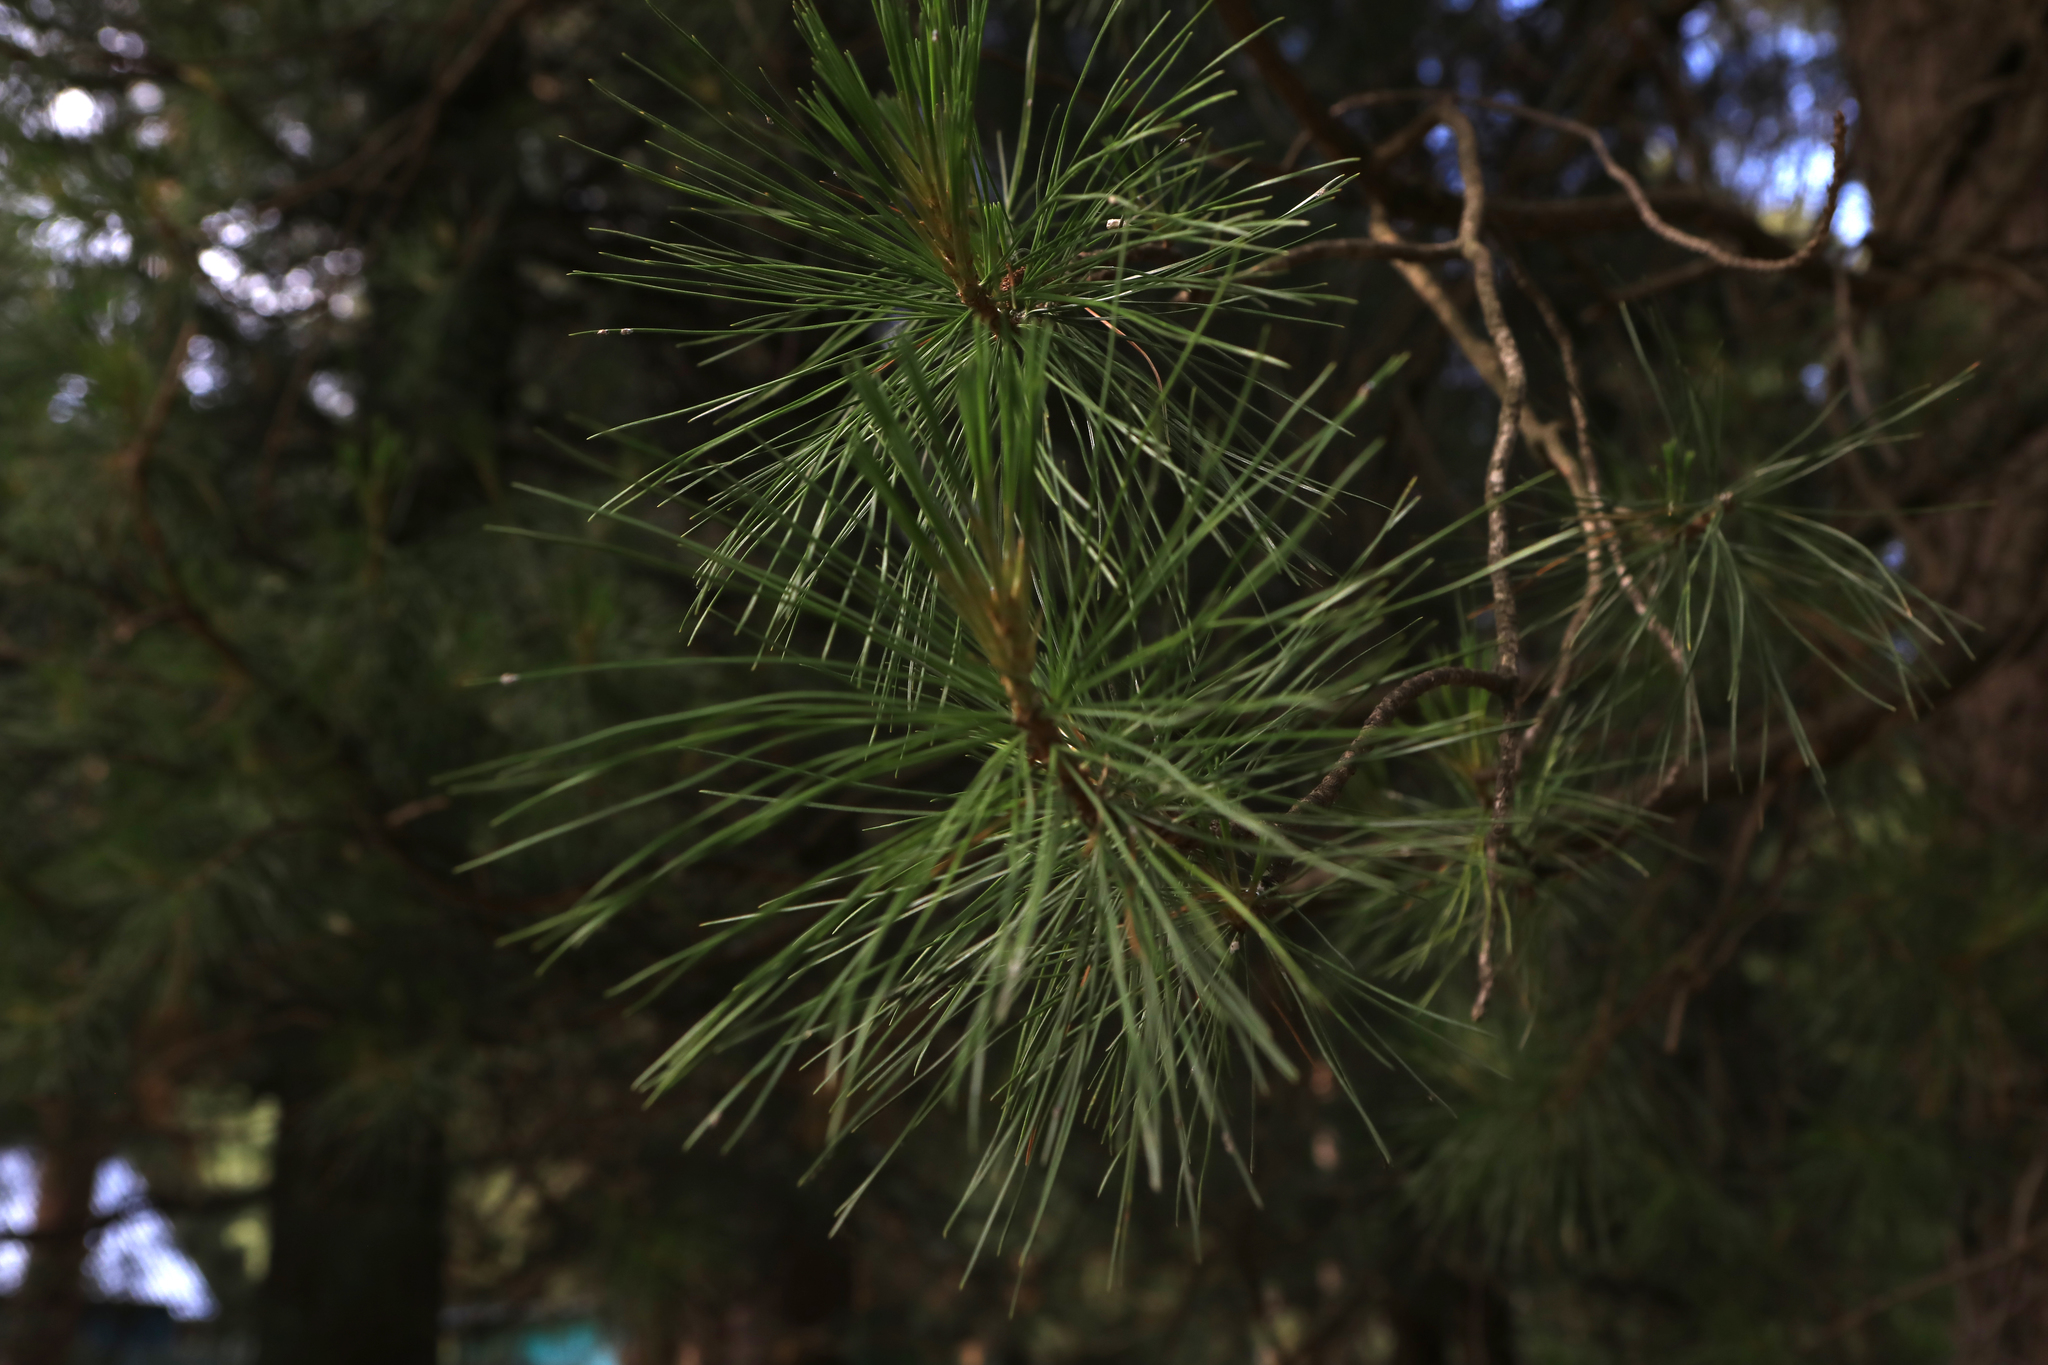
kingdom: Plantae
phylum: Tracheophyta
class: Pinopsida
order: Pinales
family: Pinaceae
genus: Pinus
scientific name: Pinus sibirica
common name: Siberian pine
